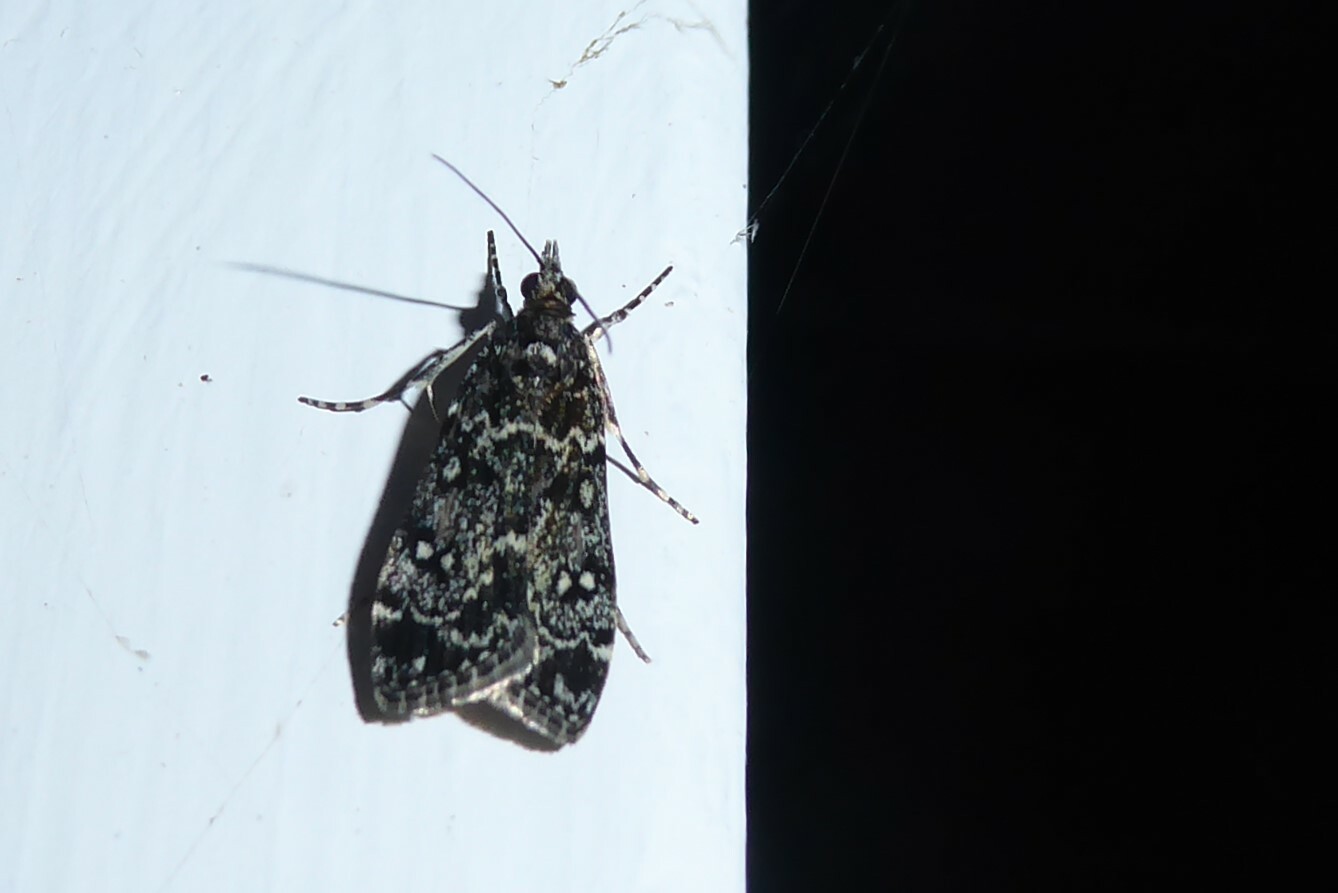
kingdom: Animalia
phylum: Arthropoda
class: Insecta
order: Lepidoptera
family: Crambidae
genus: Eudonia
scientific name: Eudonia philerga
